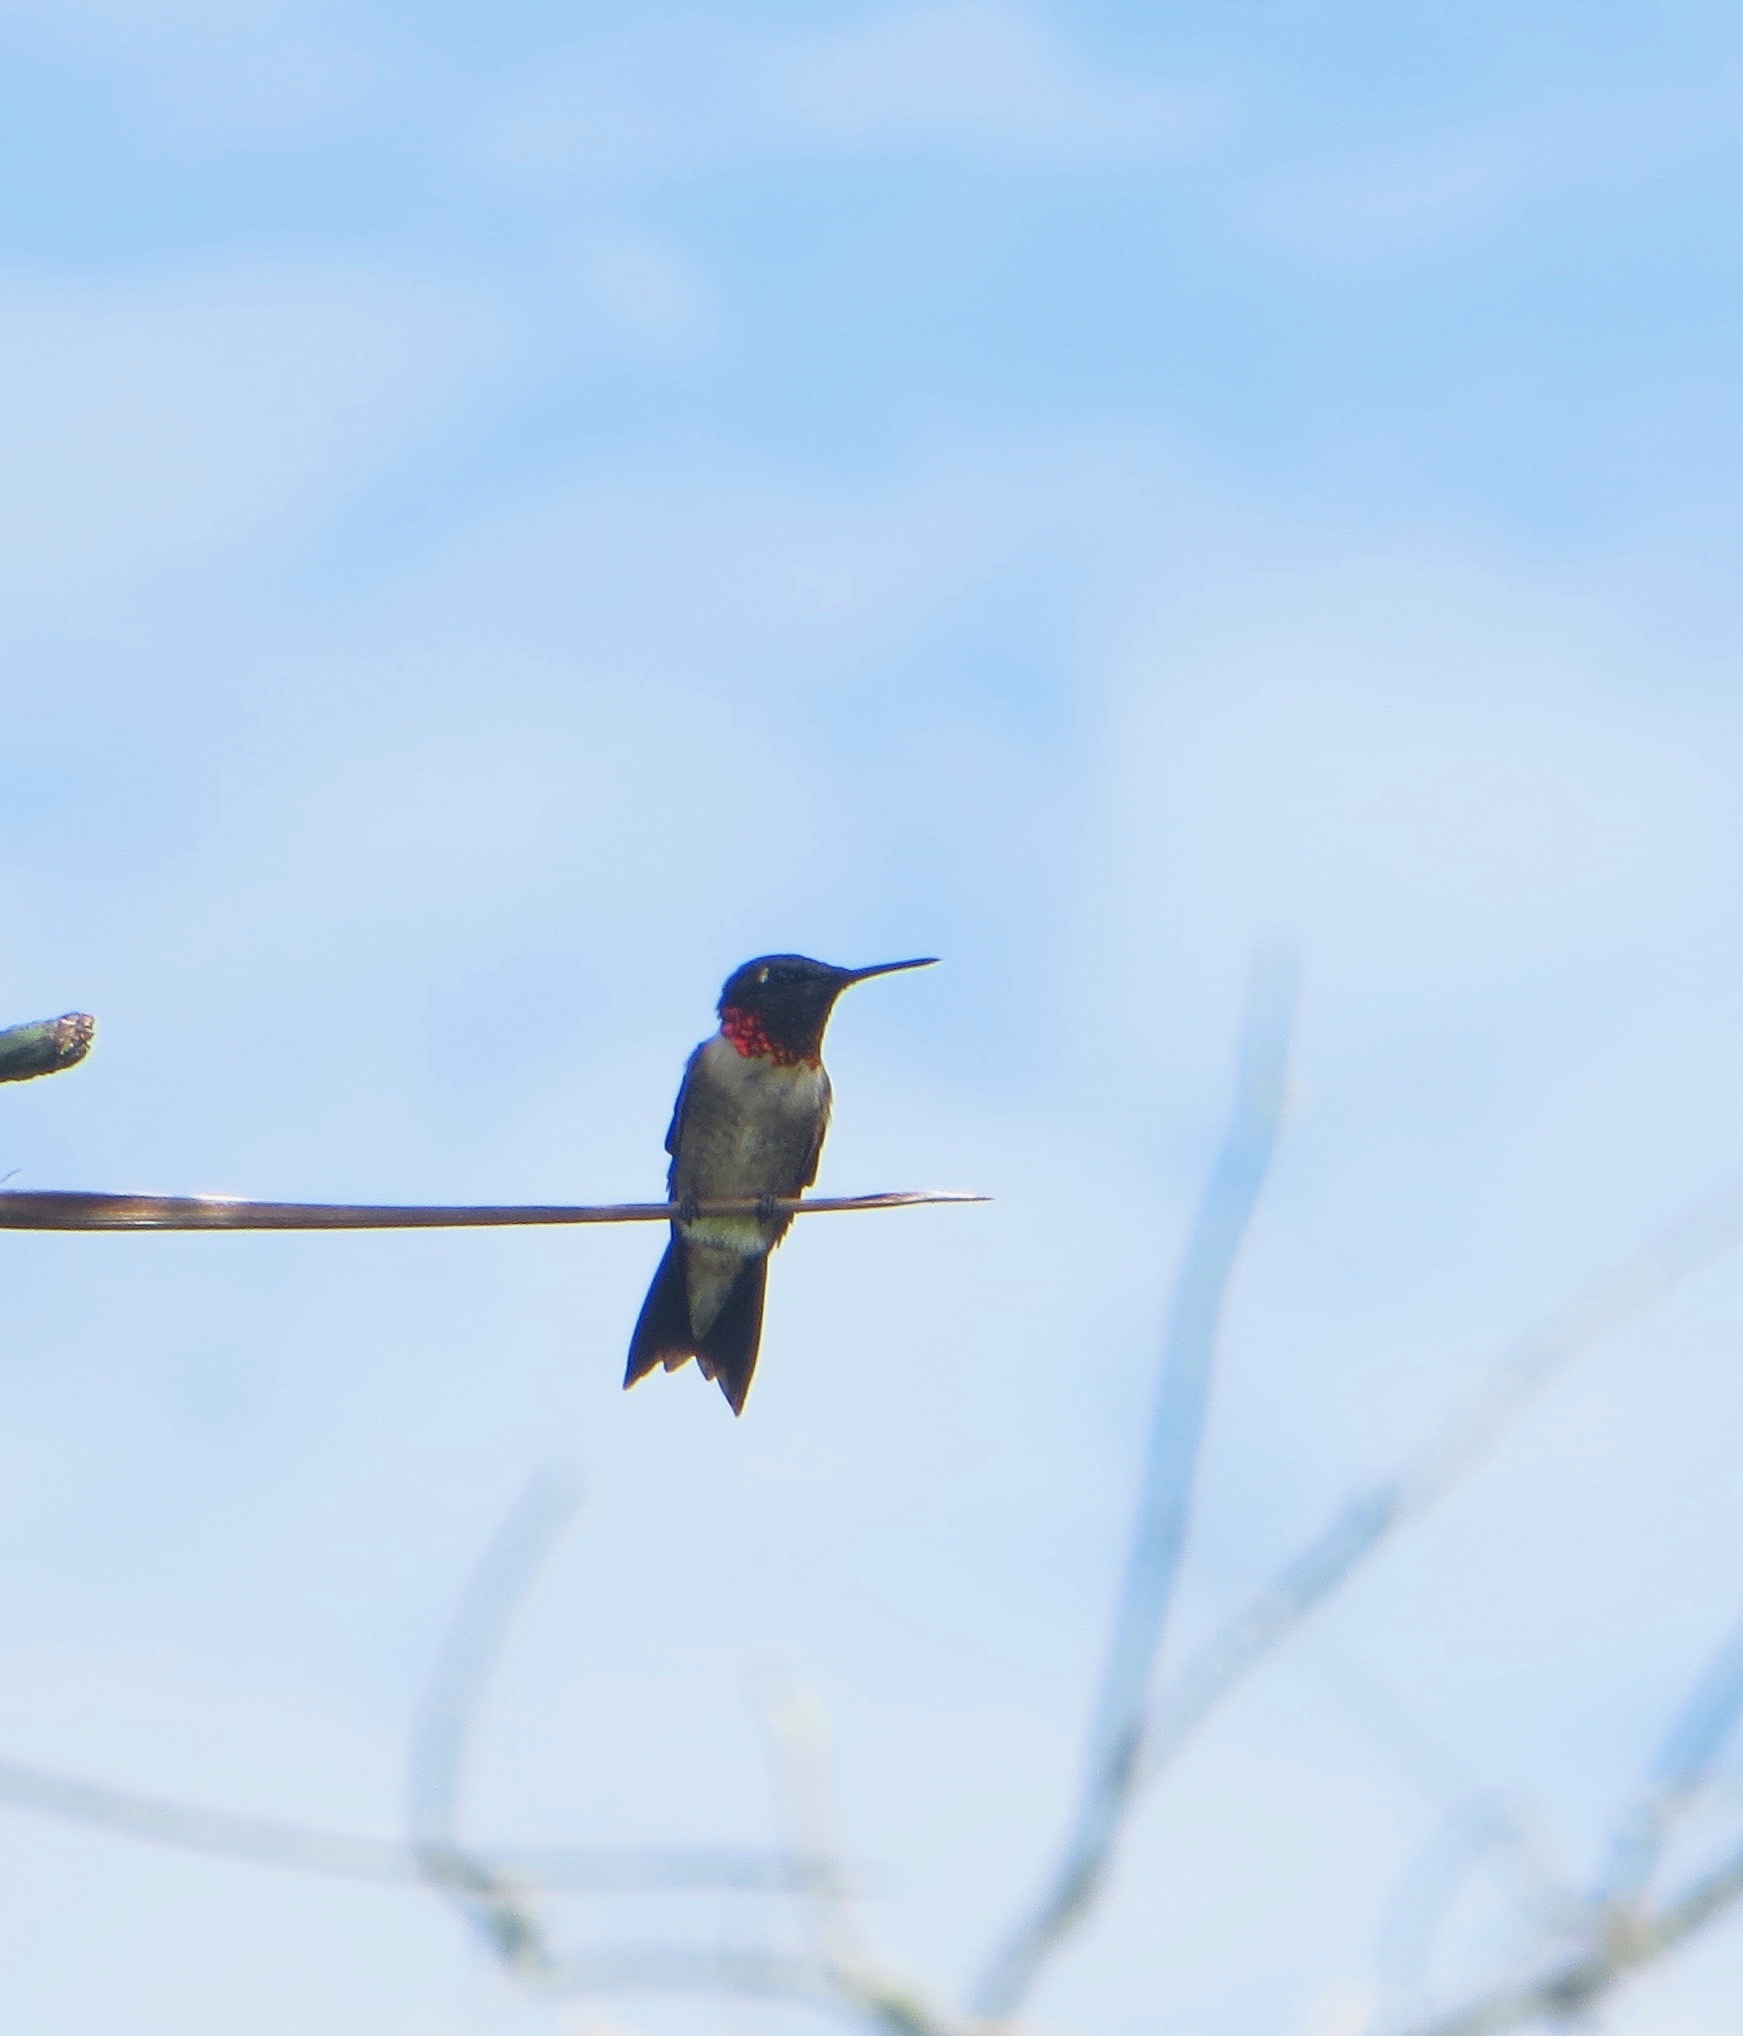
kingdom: Animalia
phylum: Chordata
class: Aves
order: Apodiformes
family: Trochilidae
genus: Archilochus
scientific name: Archilochus colubris
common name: Ruby-throated hummingbird
